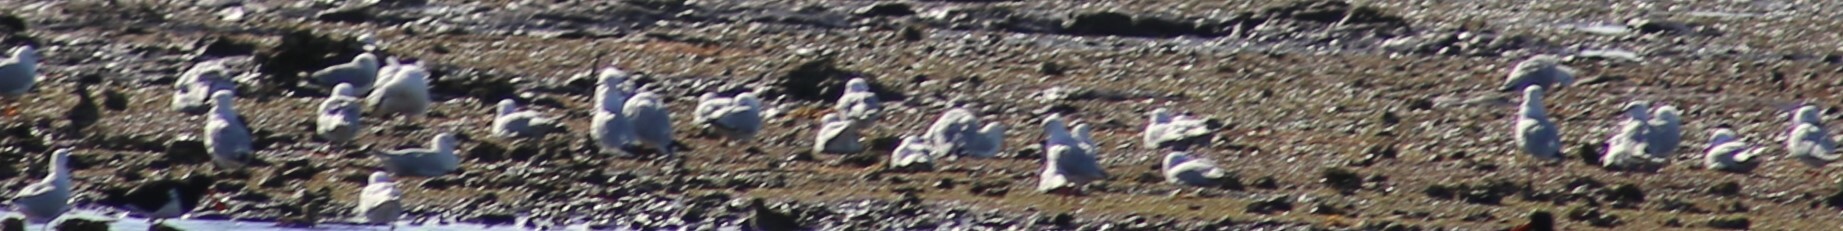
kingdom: Animalia
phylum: Chordata
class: Aves
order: Charadriiformes
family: Laridae
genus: Chroicocephalus
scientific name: Chroicocephalus novaehollandiae
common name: Silver gull
